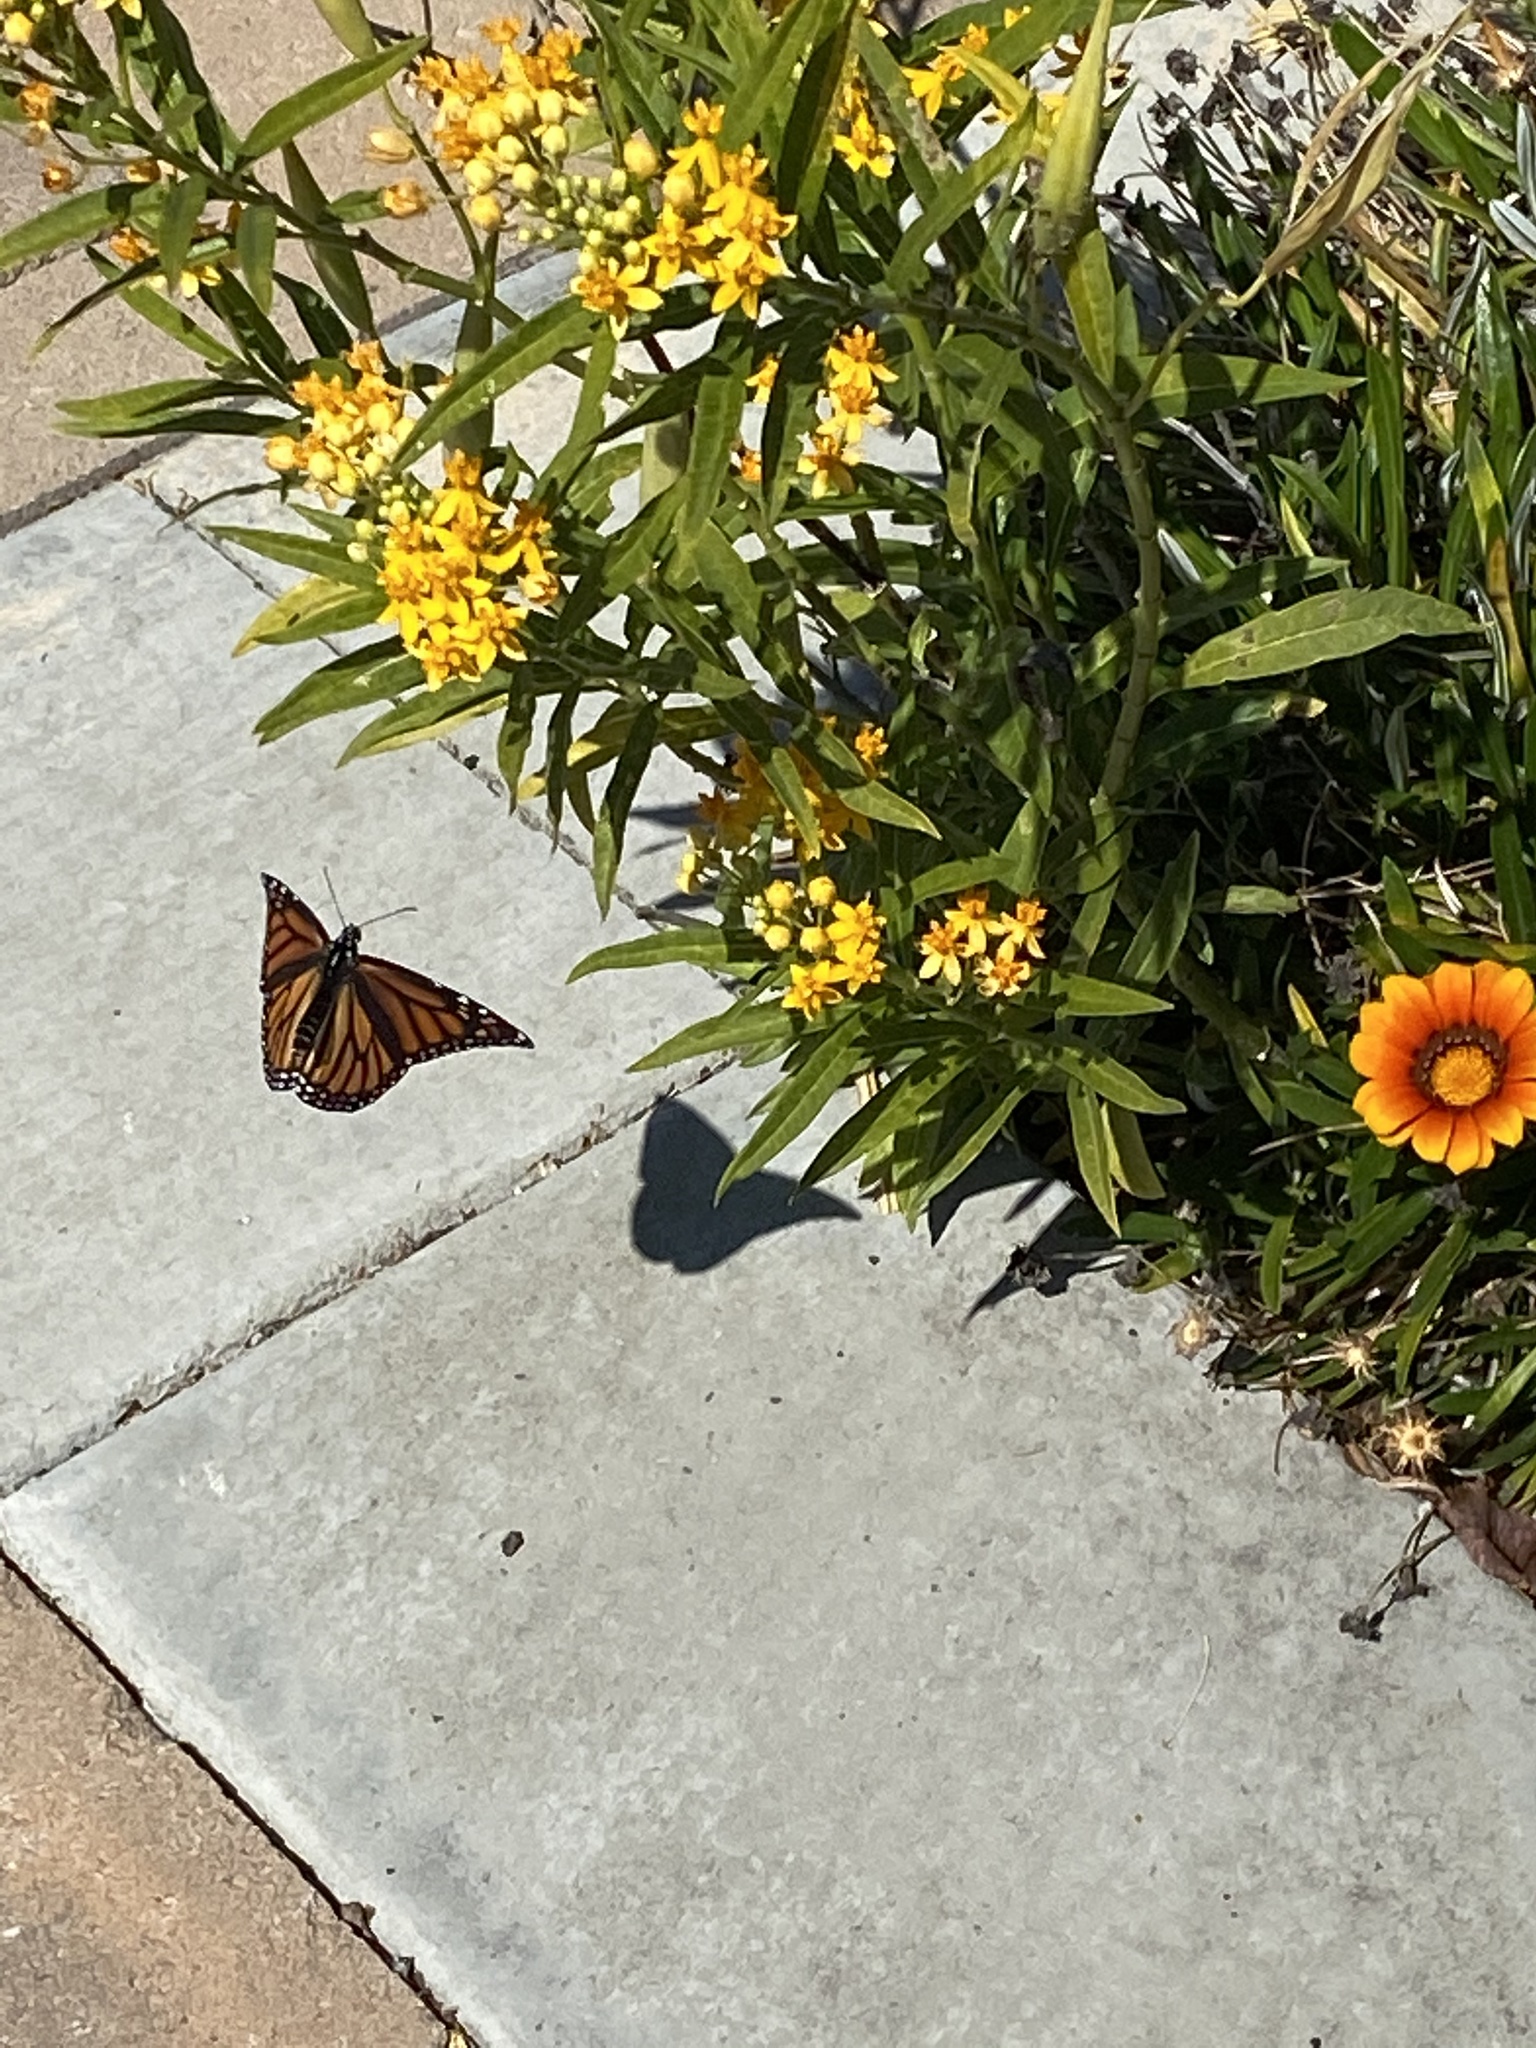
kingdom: Animalia
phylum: Arthropoda
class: Insecta
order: Lepidoptera
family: Nymphalidae
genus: Danaus
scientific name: Danaus plexippus
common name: Monarch
